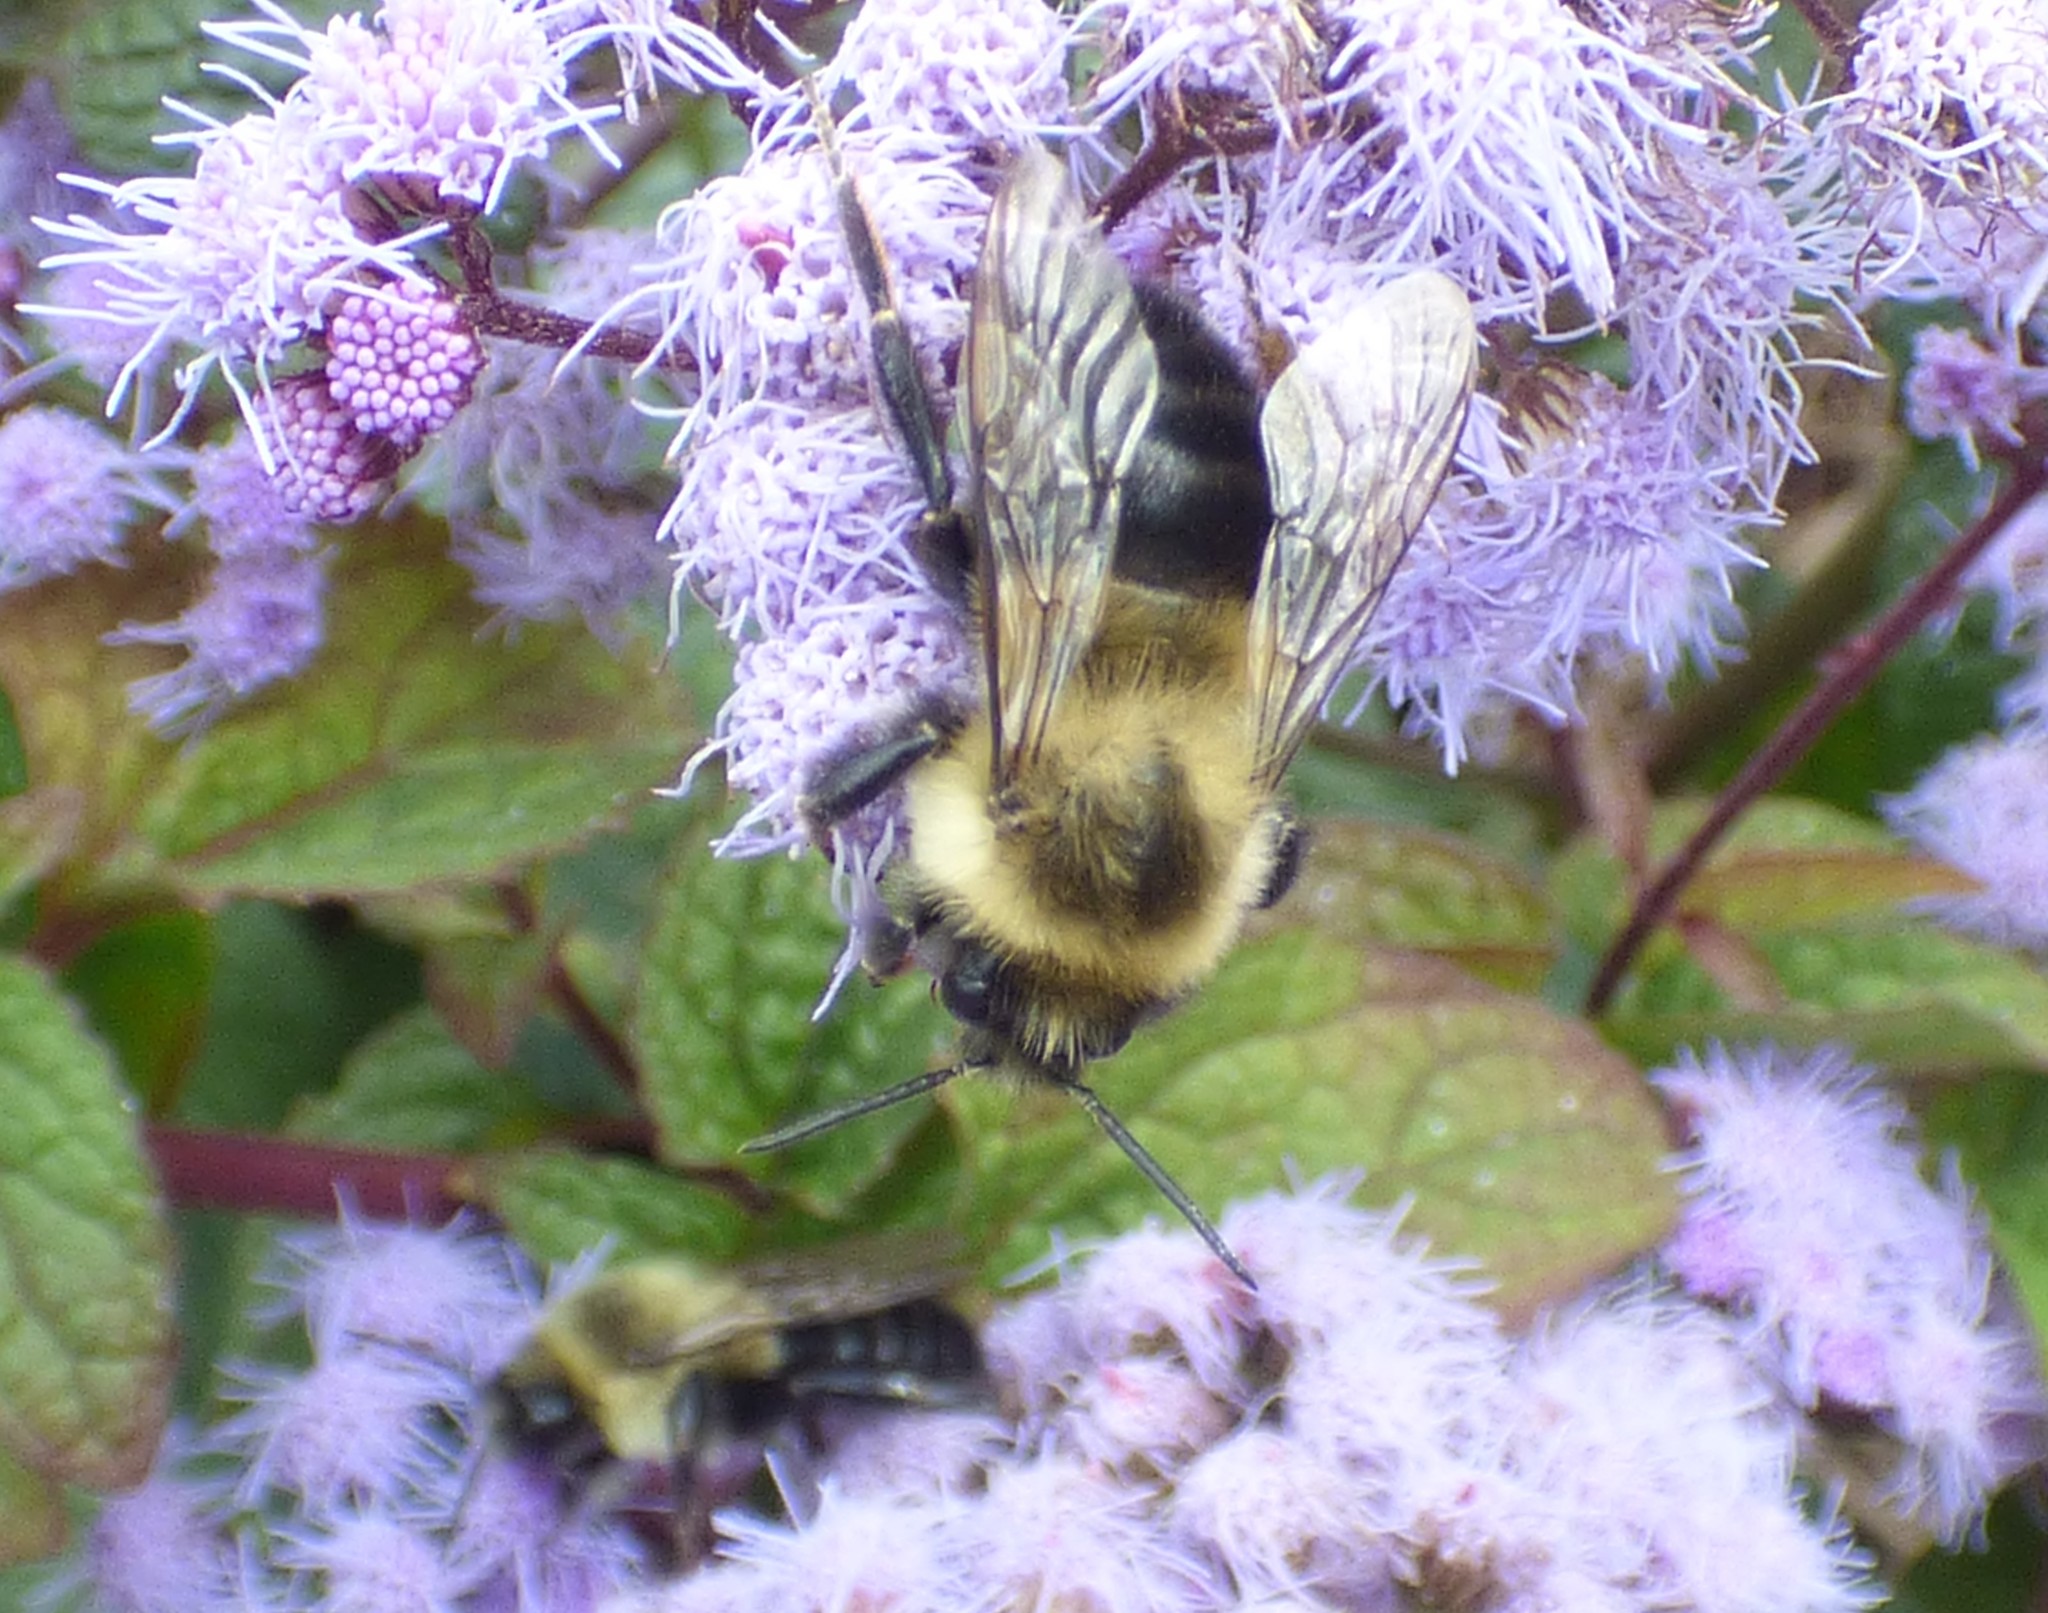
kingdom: Animalia
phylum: Arthropoda
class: Insecta
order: Hymenoptera
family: Apidae
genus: Bombus
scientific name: Bombus impatiens
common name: Common eastern bumble bee
